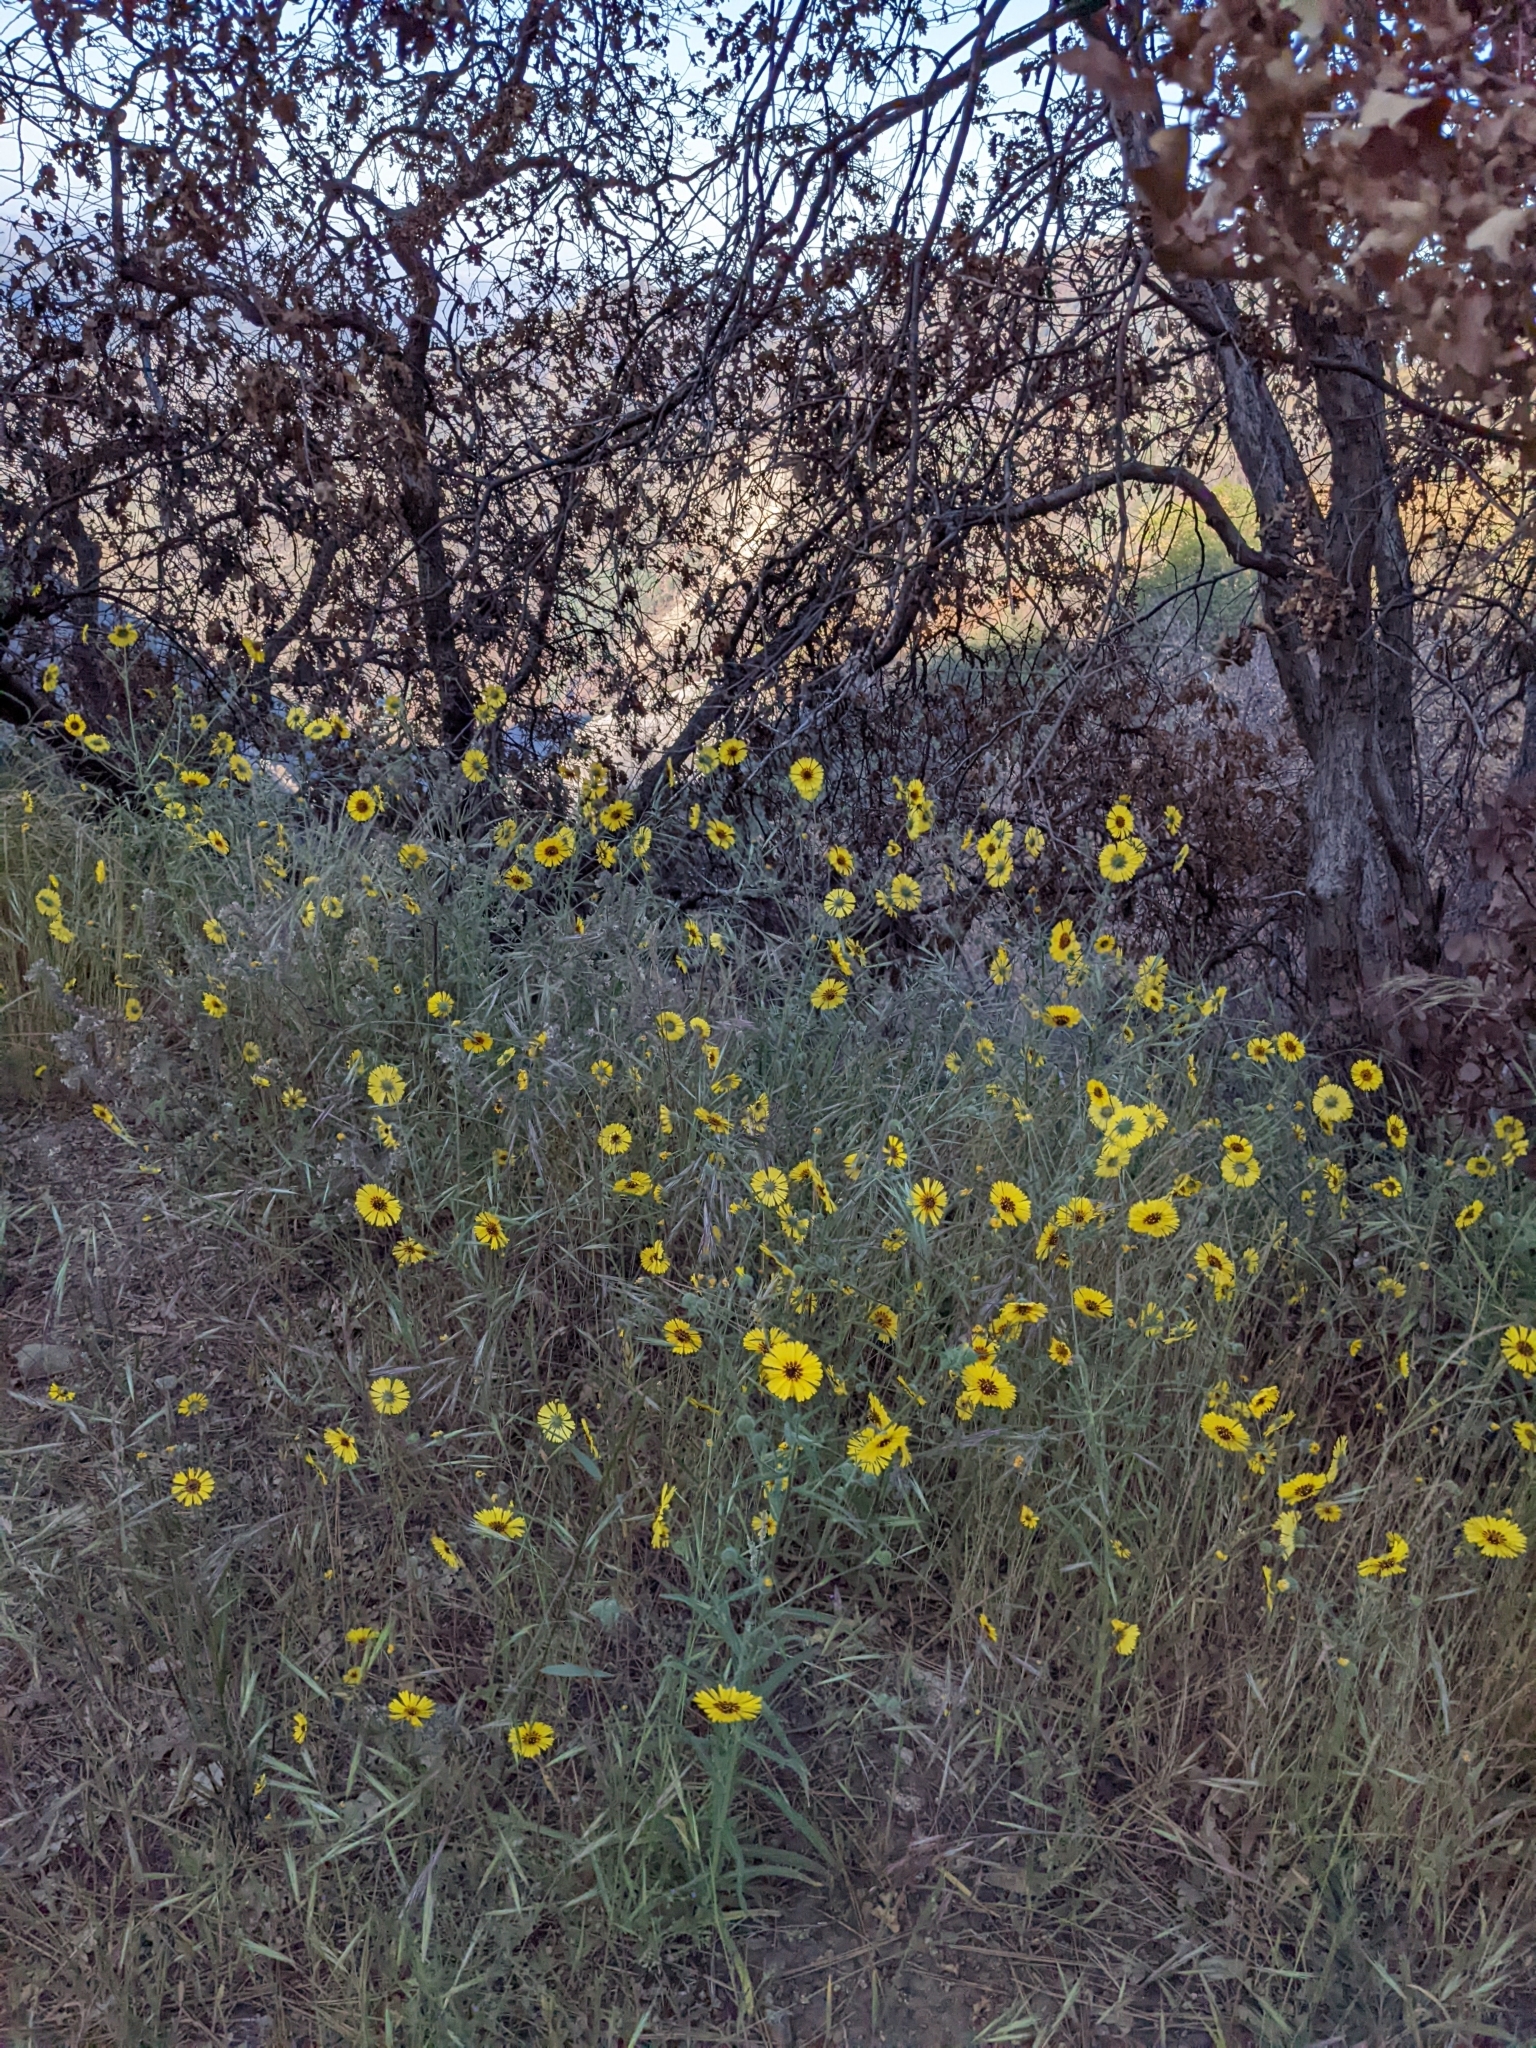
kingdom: Plantae
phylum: Tracheophyta
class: Magnoliopsida
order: Asterales
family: Asteraceae
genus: Madia
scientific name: Madia elegans
